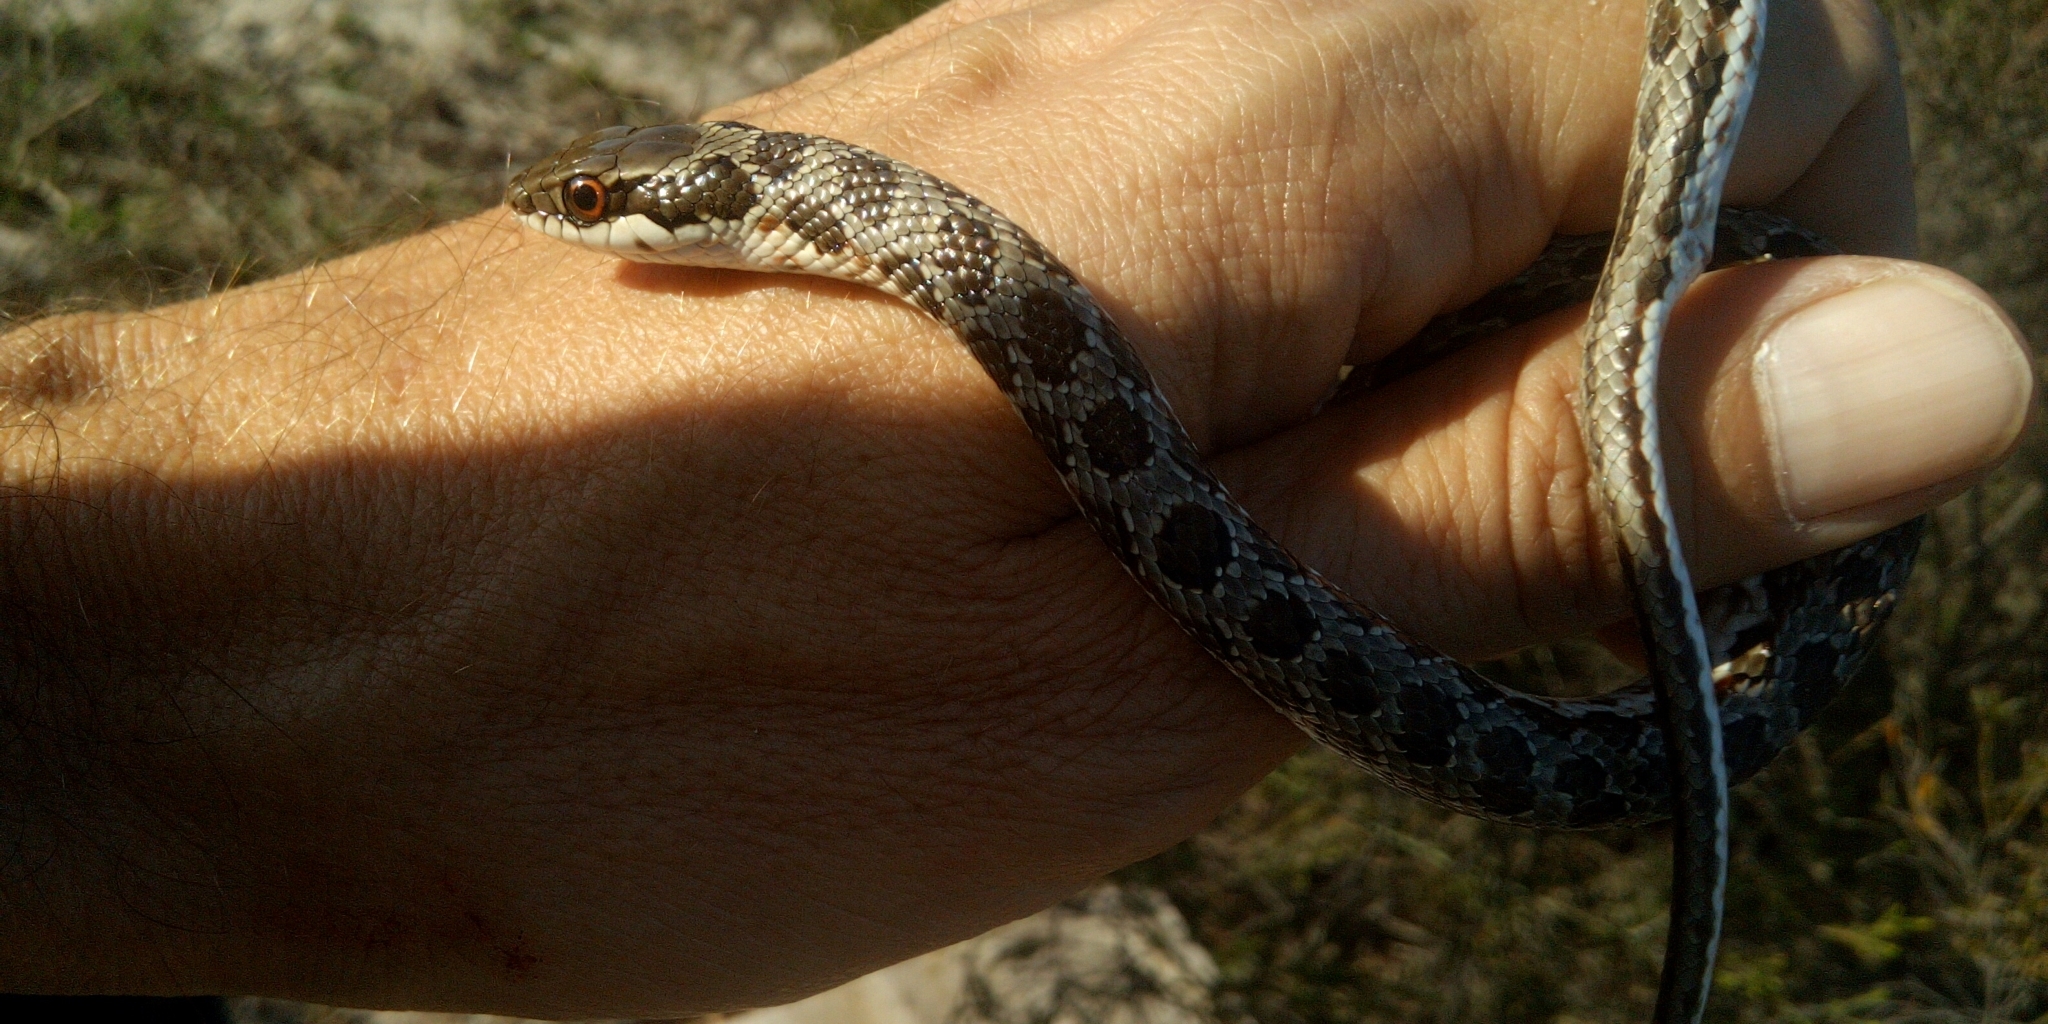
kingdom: Animalia
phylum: Chordata
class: Squamata
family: Psammophiidae
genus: Psammophylax
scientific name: Psammophylax rhombeatus
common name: Rhombic skaapsteker
